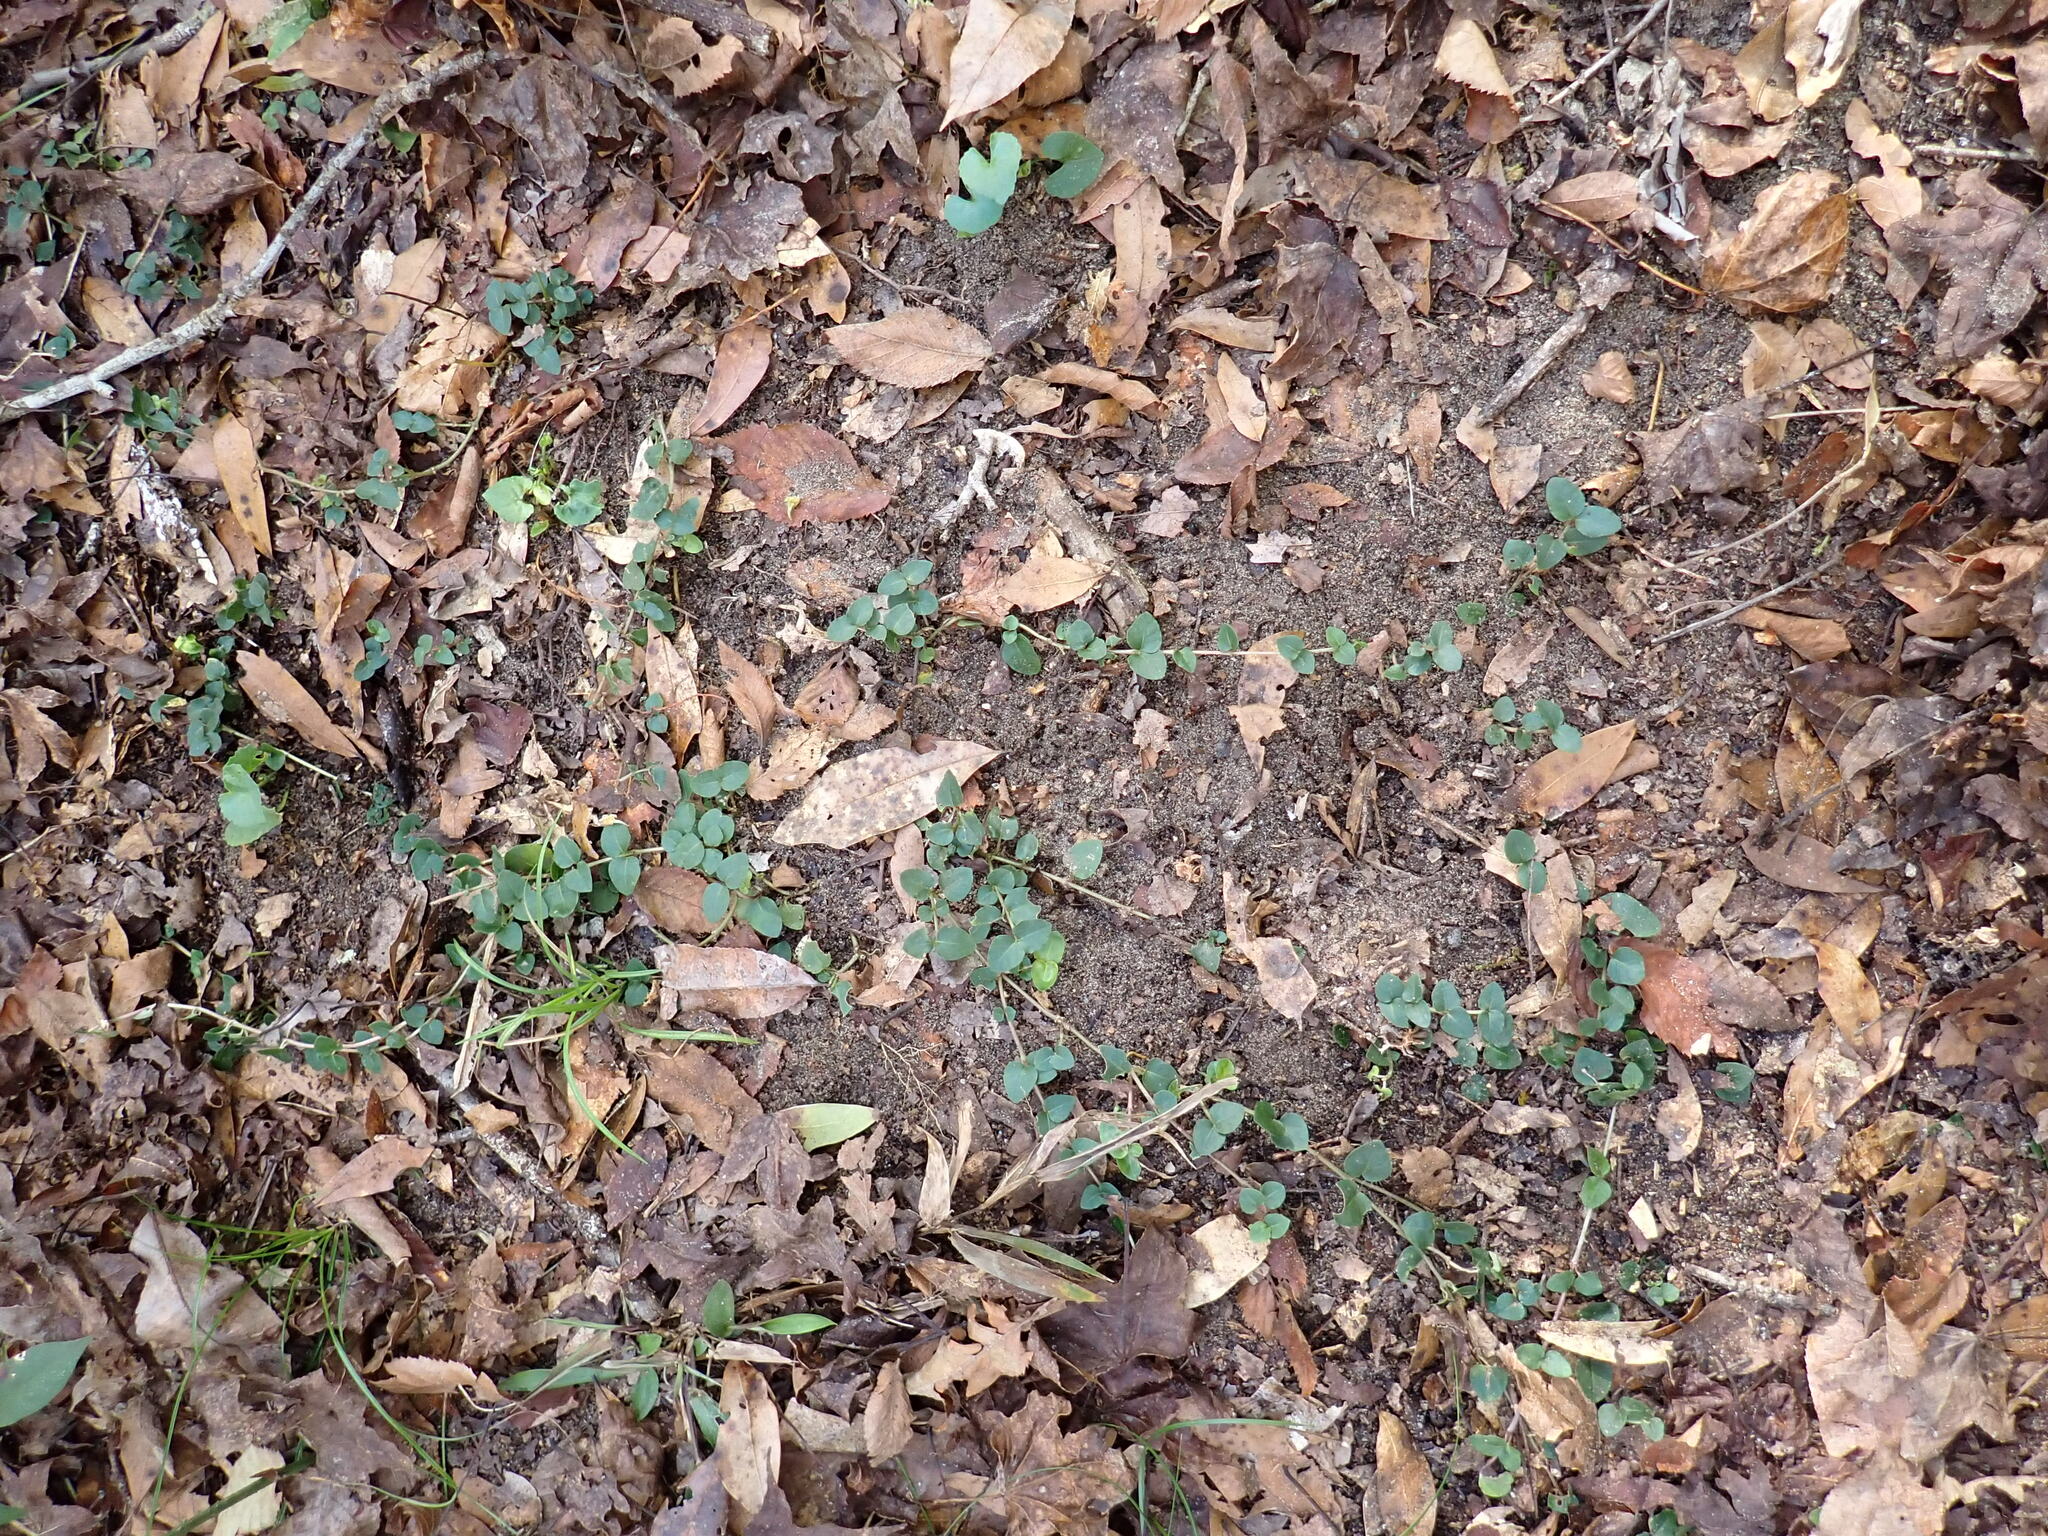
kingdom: Plantae
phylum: Tracheophyta
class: Magnoliopsida
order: Gentianales
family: Rubiaceae
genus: Mitchella
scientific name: Mitchella repens
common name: Partridge-berry
